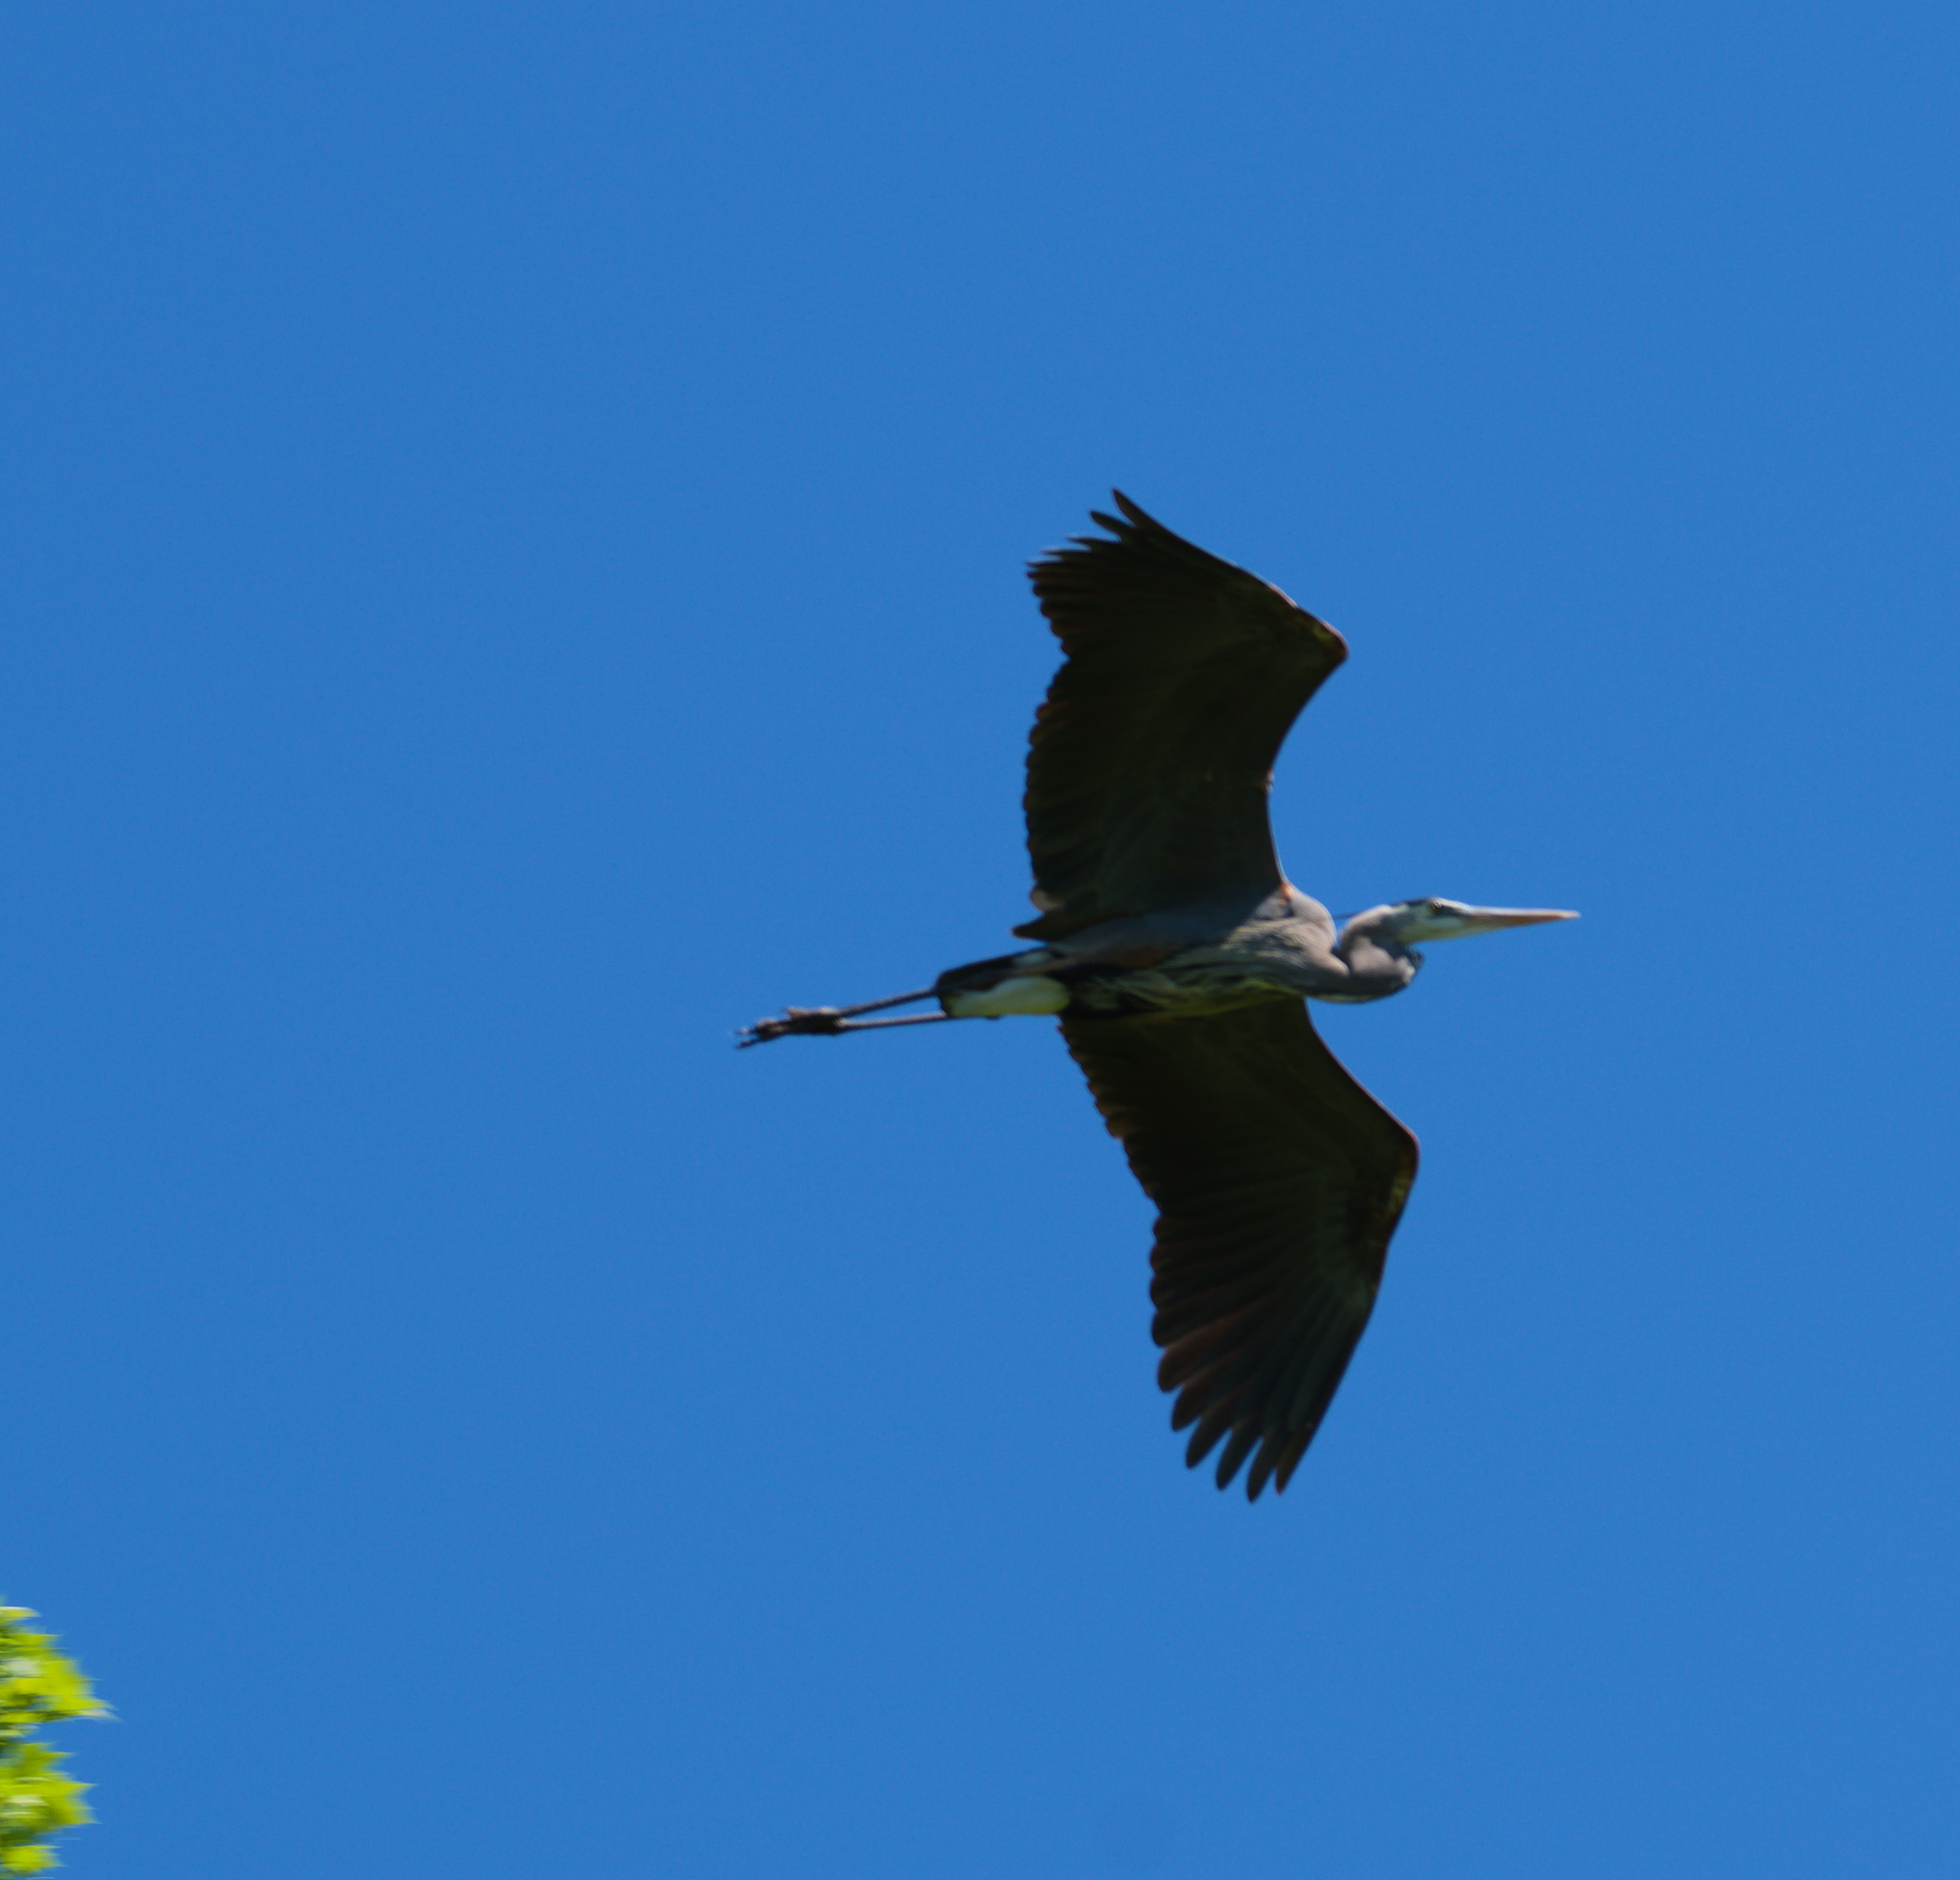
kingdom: Animalia
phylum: Chordata
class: Aves
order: Pelecaniformes
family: Ardeidae
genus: Ardea
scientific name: Ardea herodias
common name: Great blue heron
